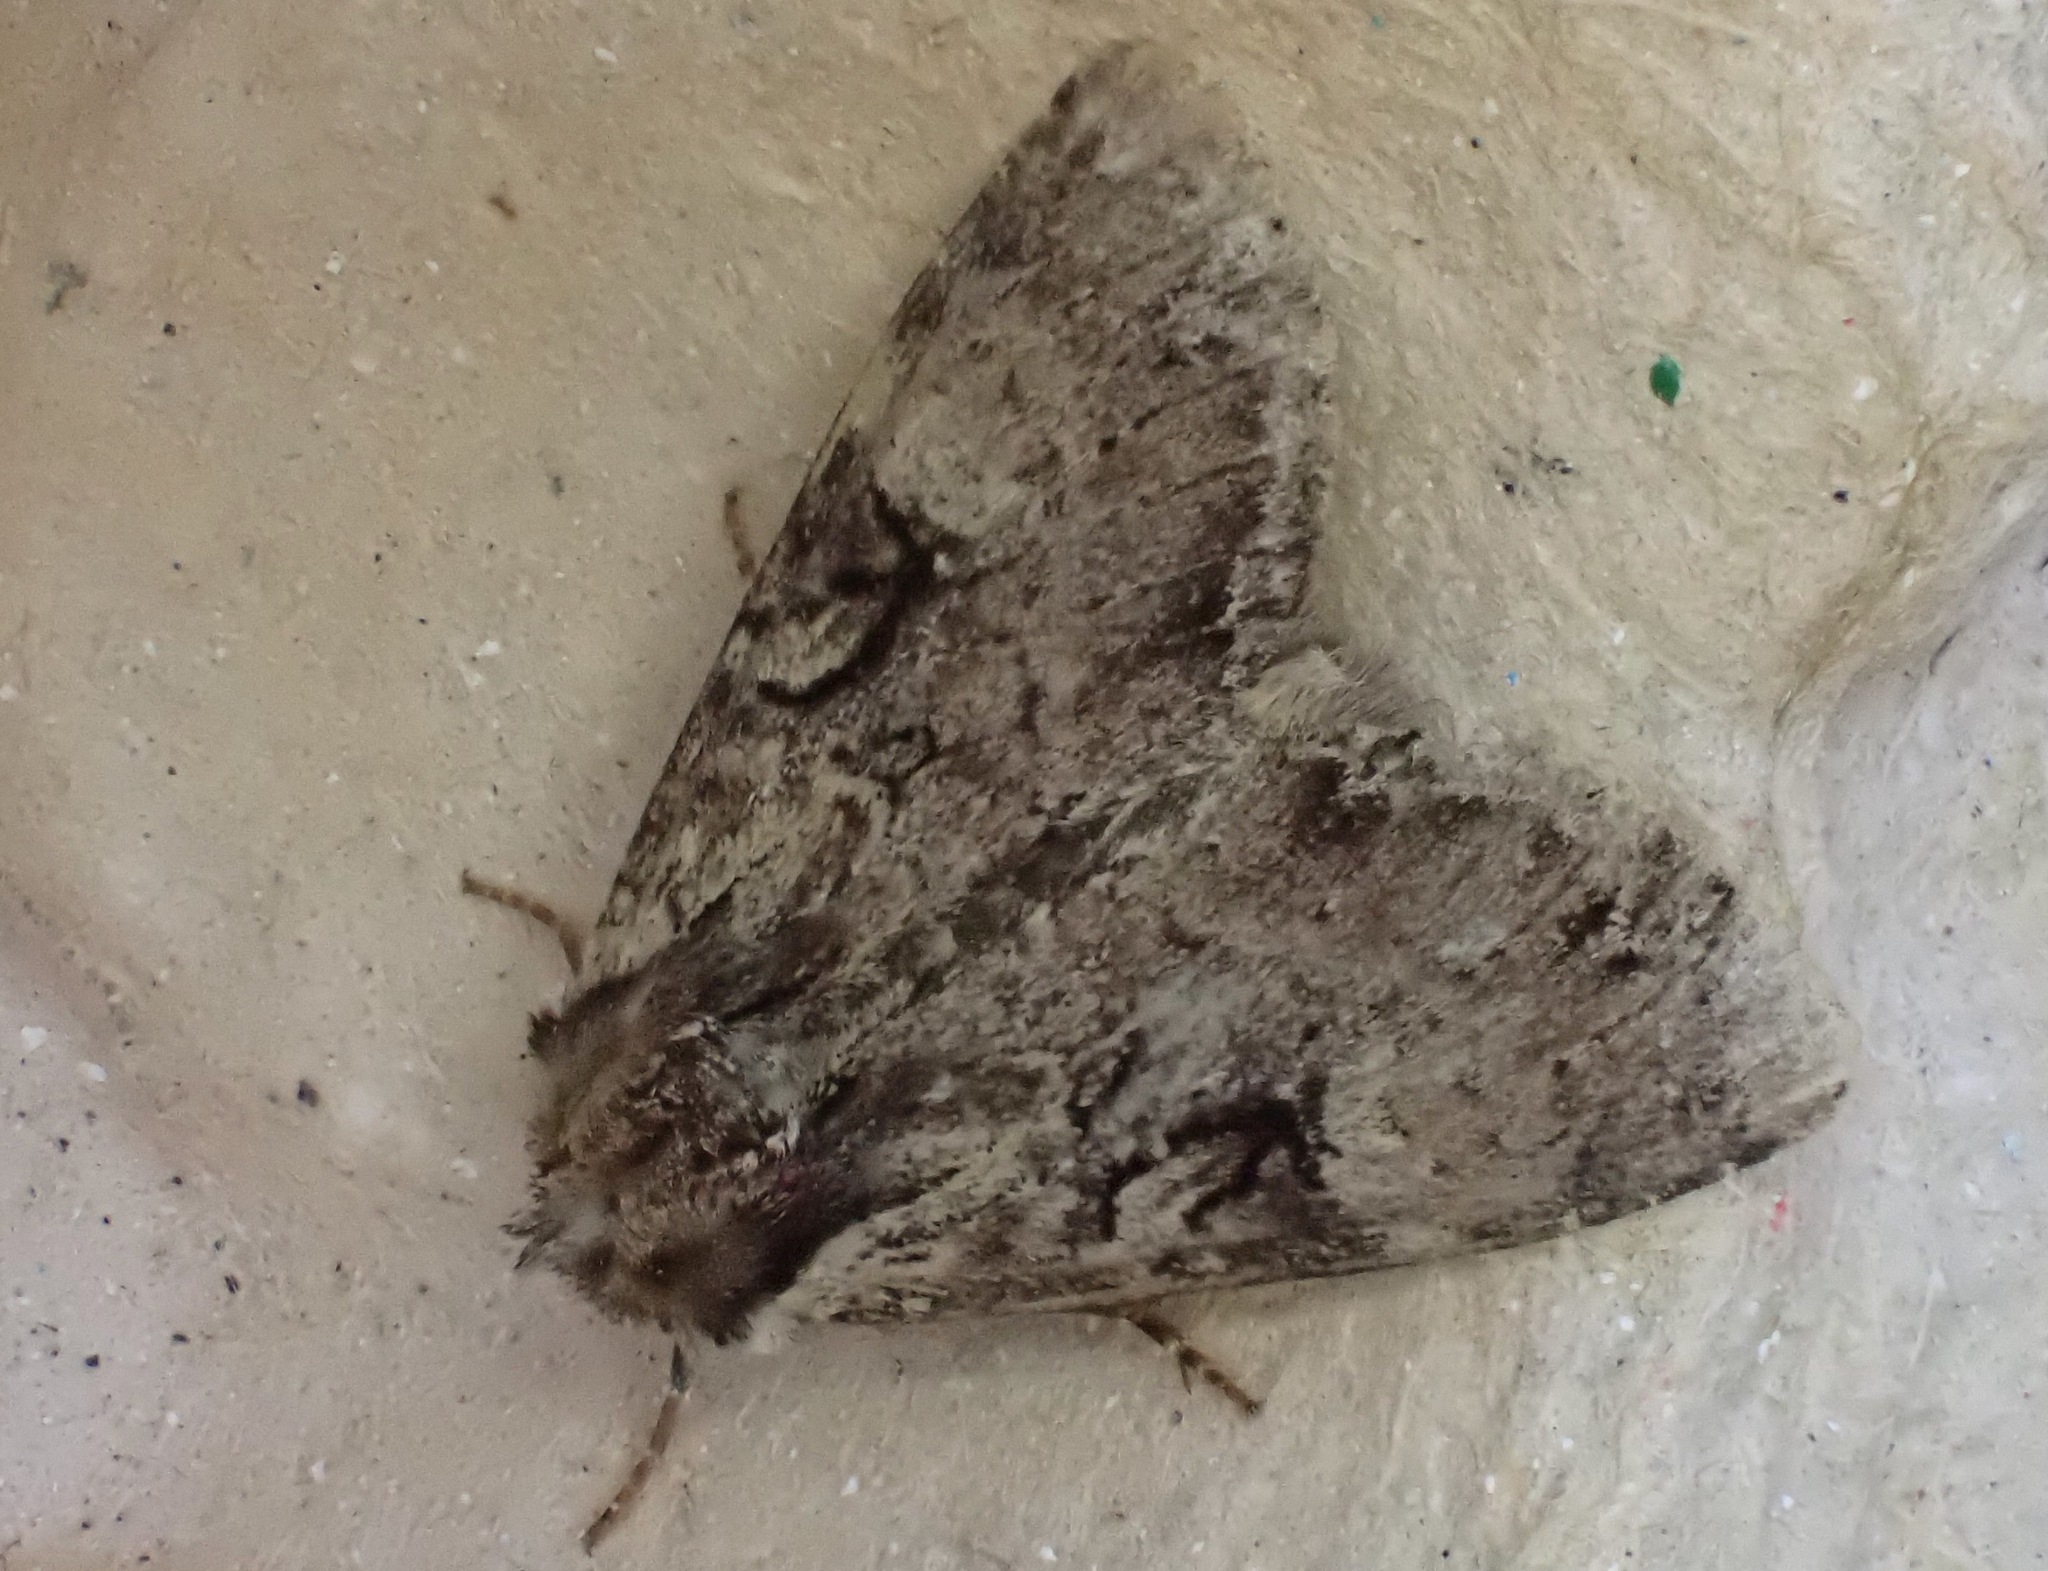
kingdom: Animalia
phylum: Arthropoda
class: Insecta
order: Lepidoptera
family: Noctuidae
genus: Apamea
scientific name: Apamea epomidion
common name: Clouded brindle
